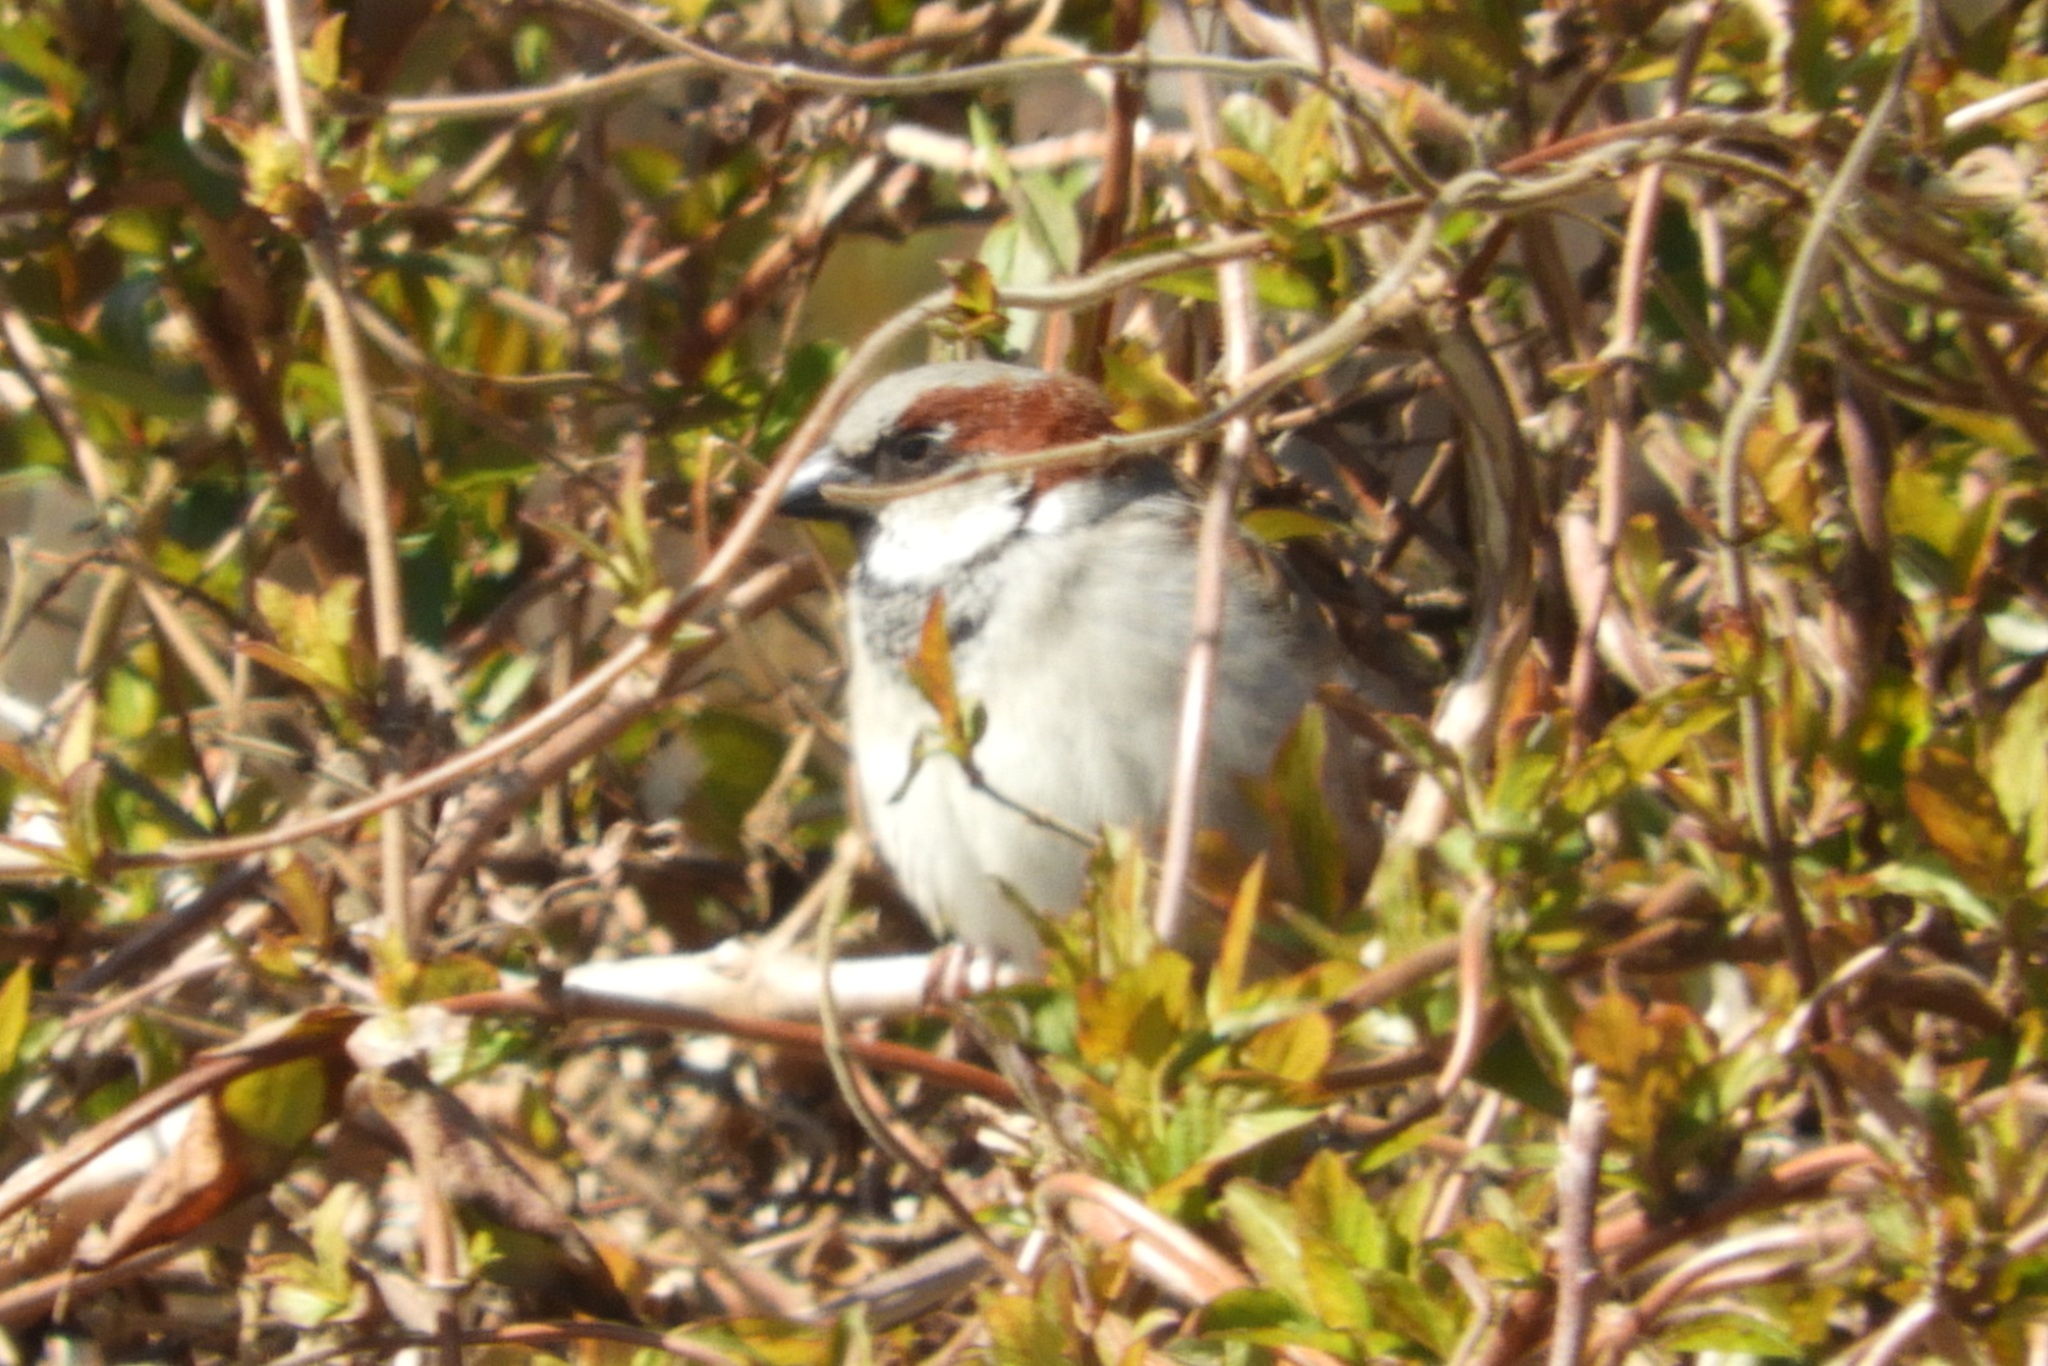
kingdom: Animalia
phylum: Chordata
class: Aves
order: Passeriformes
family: Passeridae
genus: Passer
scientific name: Passer domesticus
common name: House sparrow
